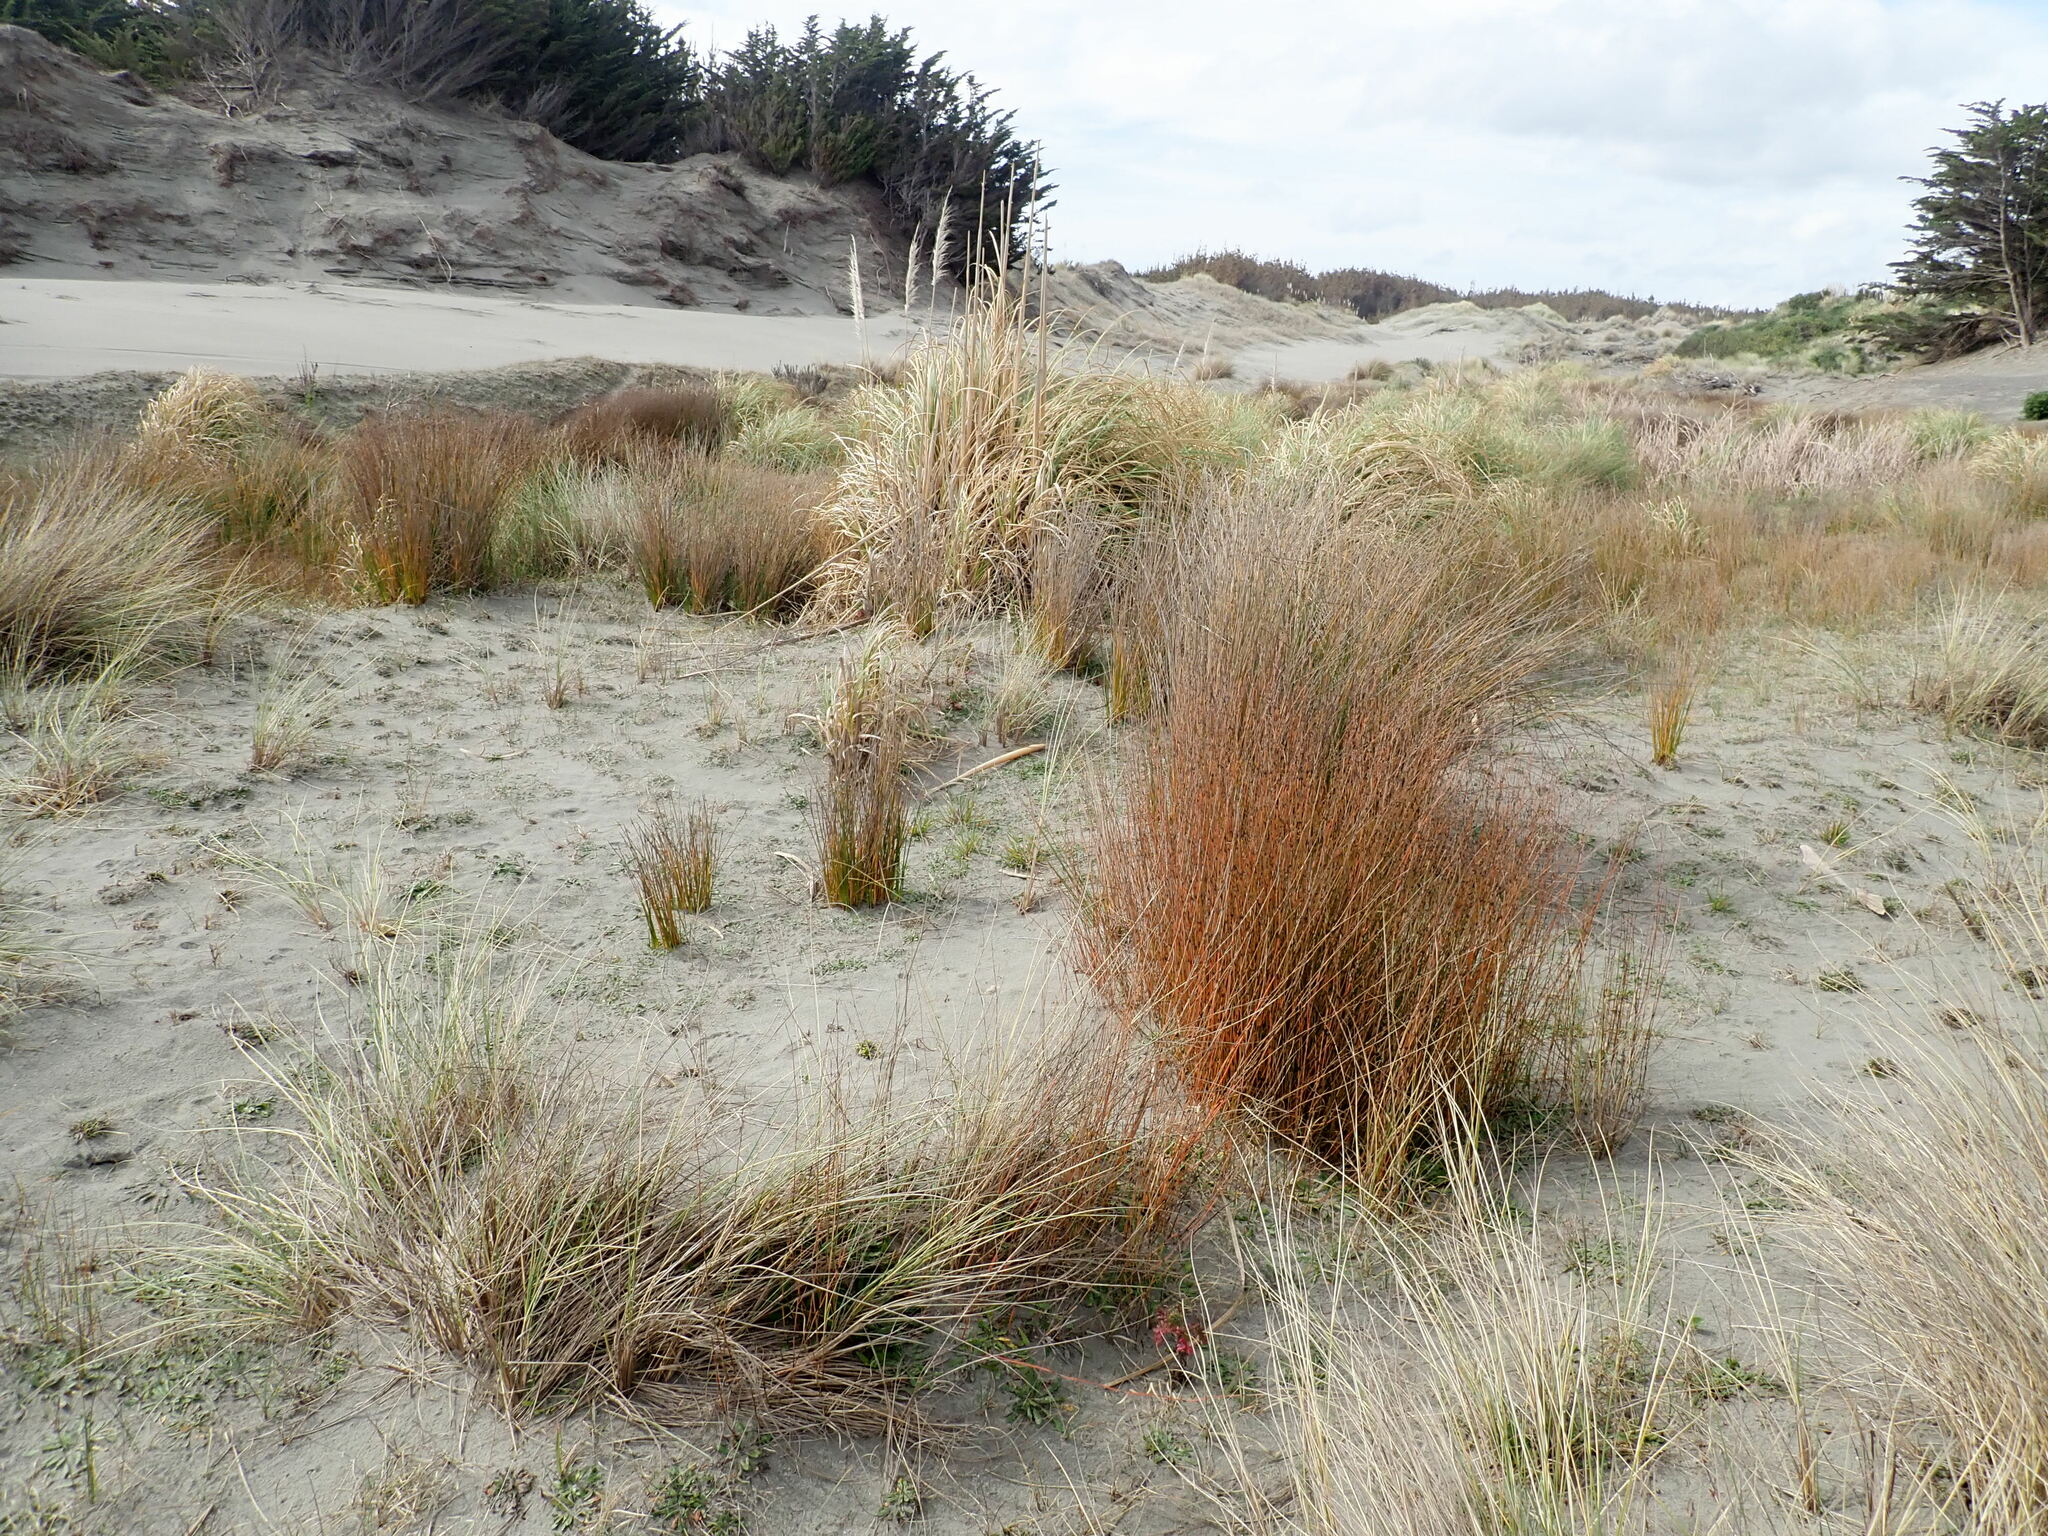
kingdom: Plantae
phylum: Tracheophyta
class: Liliopsida
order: Poales
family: Restionaceae
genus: Apodasmia
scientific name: Apodasmia similis
